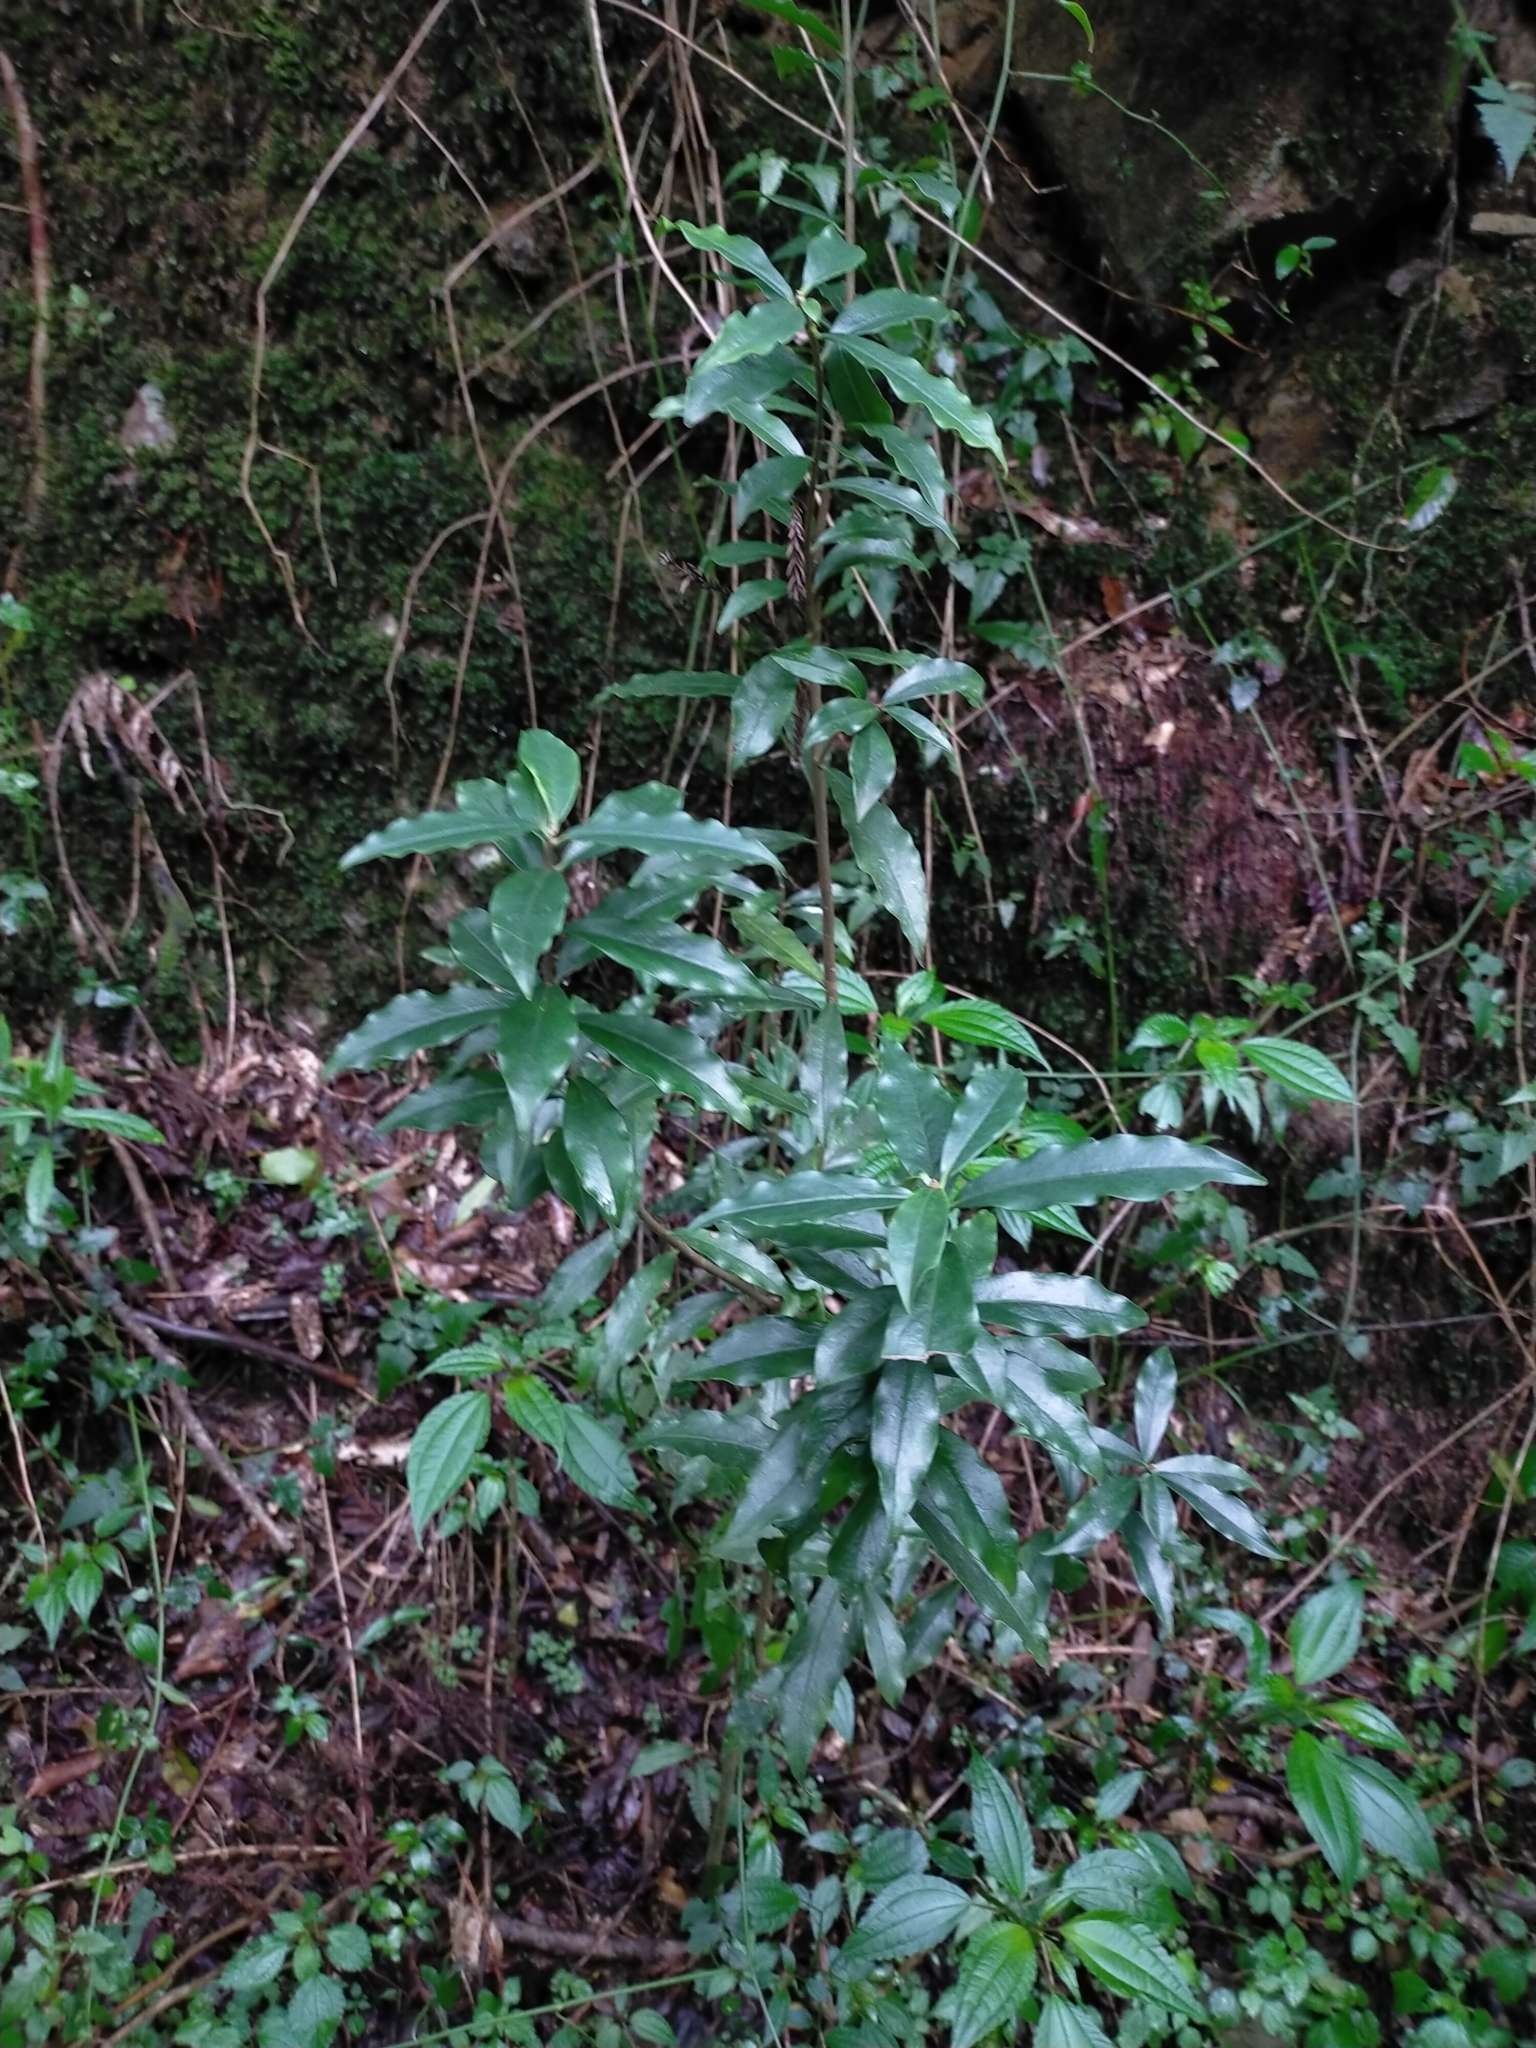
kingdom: Plantae
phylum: Tracheophyta
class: Magnoliopsida
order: Malvales
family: Thymelaeaceae
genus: Daphne
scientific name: Daphne arisanensis
